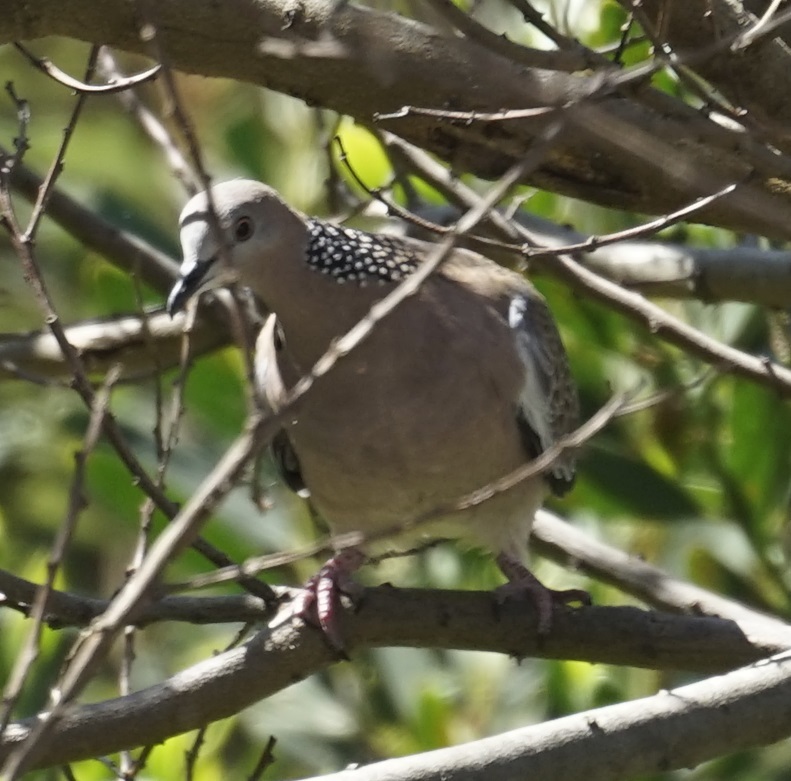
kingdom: Animalia
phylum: Chordata
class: Aves
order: Columbiformes
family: Columbidae
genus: Spilopelia
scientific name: Spilopelia chinensis
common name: Spotted dove
